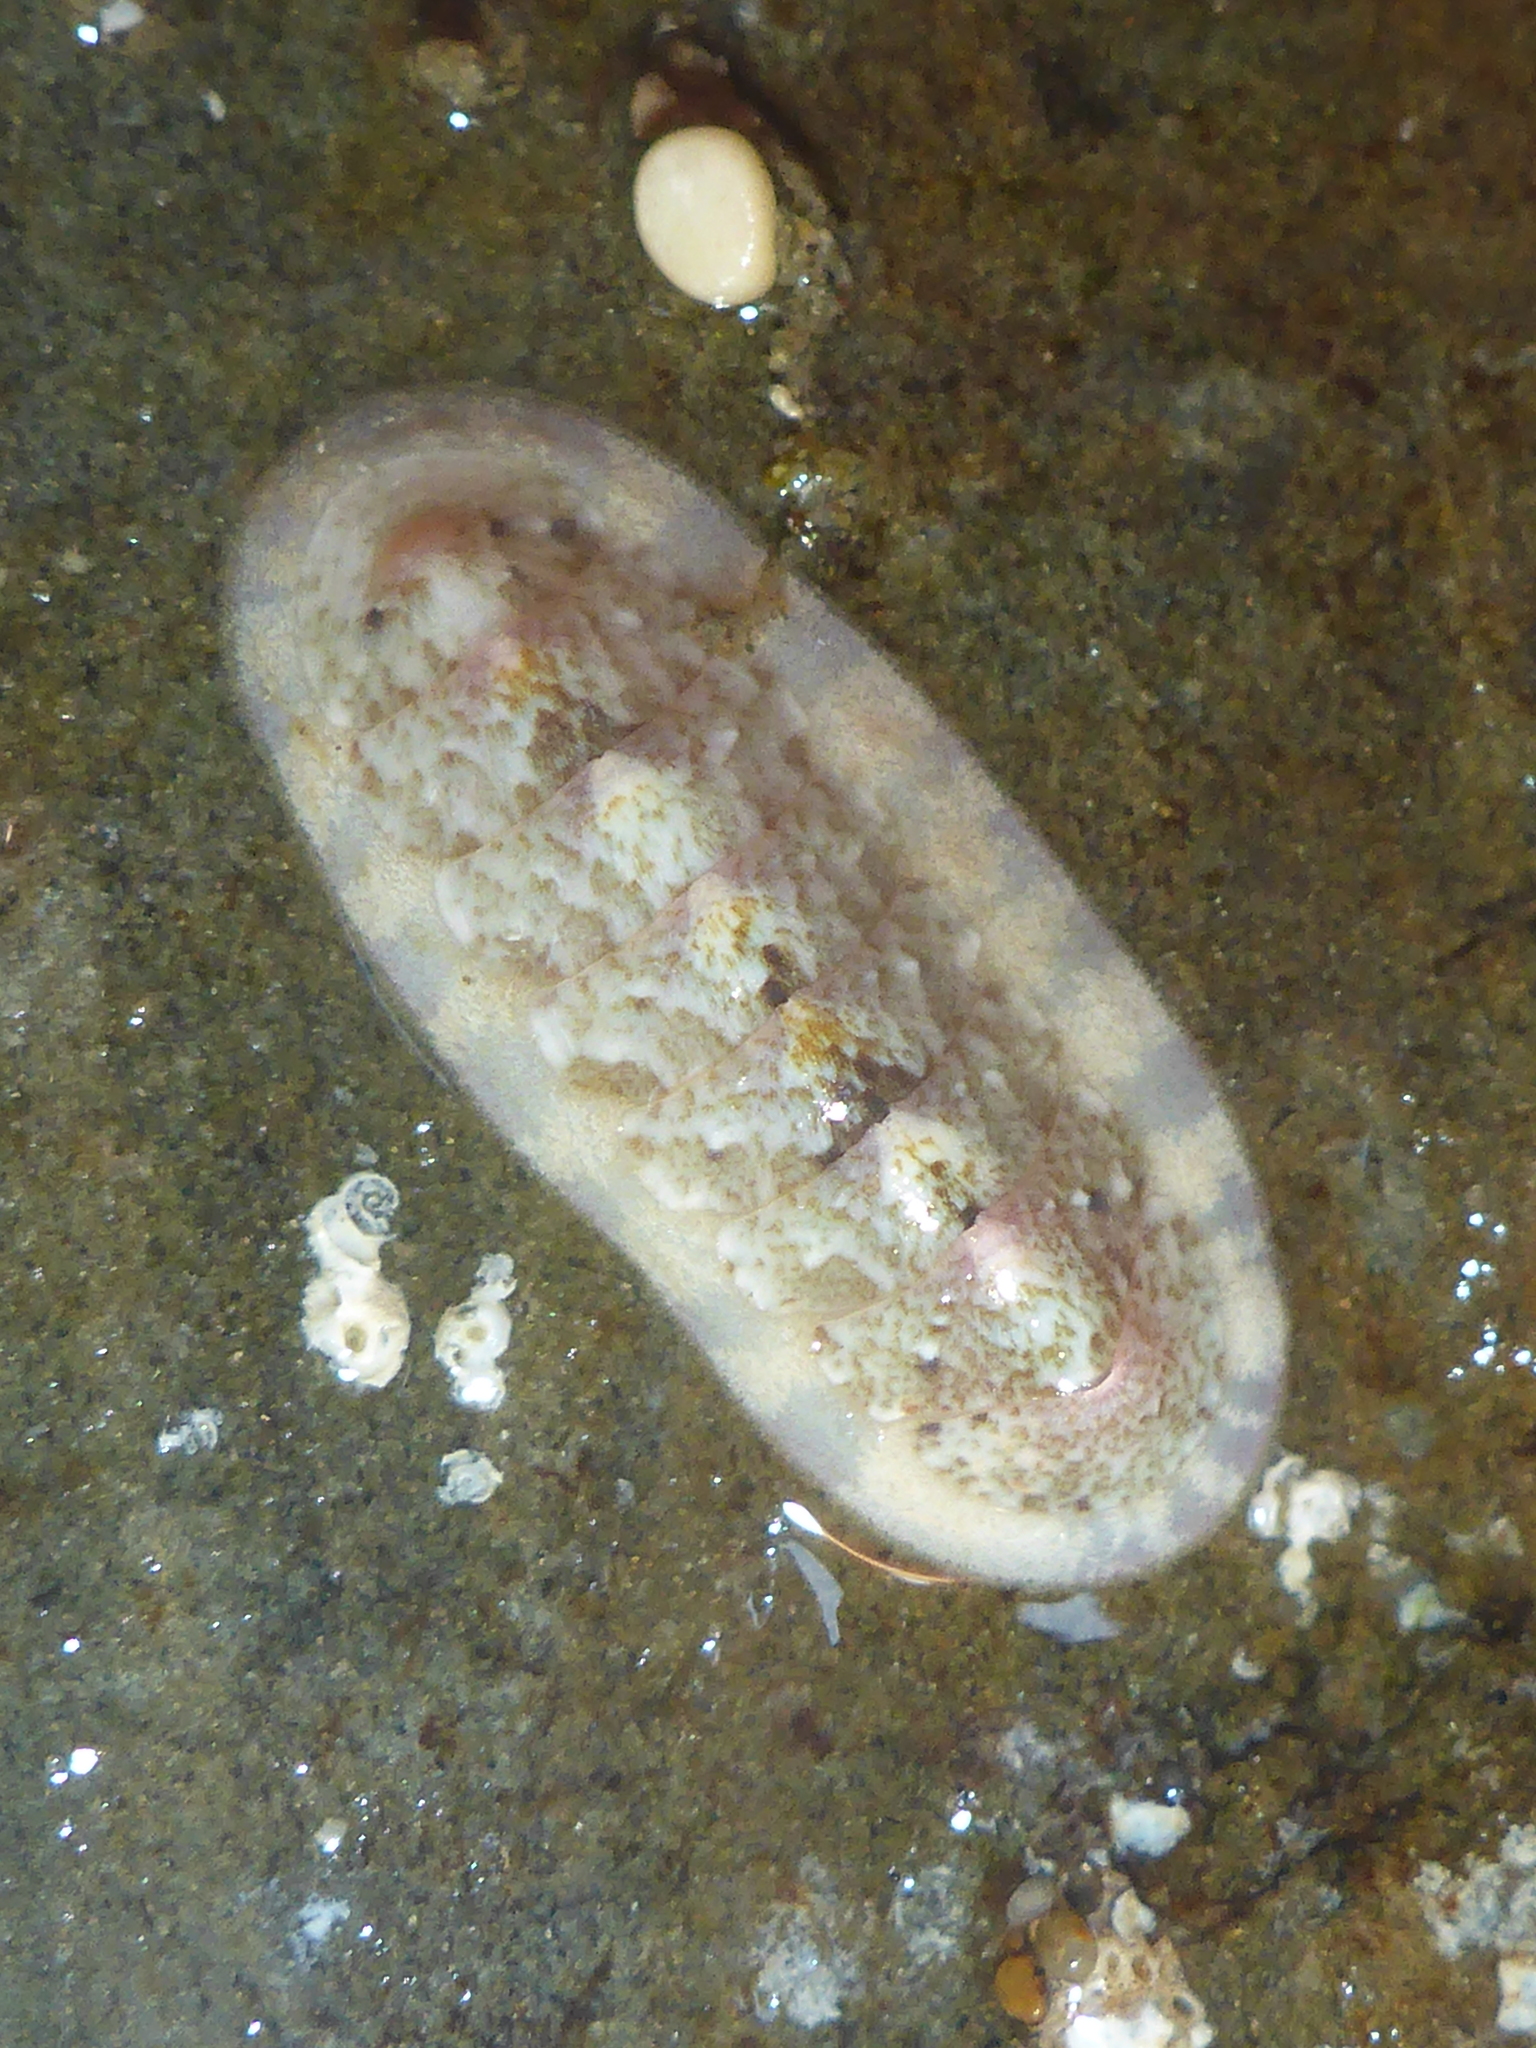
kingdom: Animalia
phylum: Mollusca
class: Polyplacophora
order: Chitonida
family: Ischnochitonidae
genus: Stenoplax
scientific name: Stenoplax heathiana
